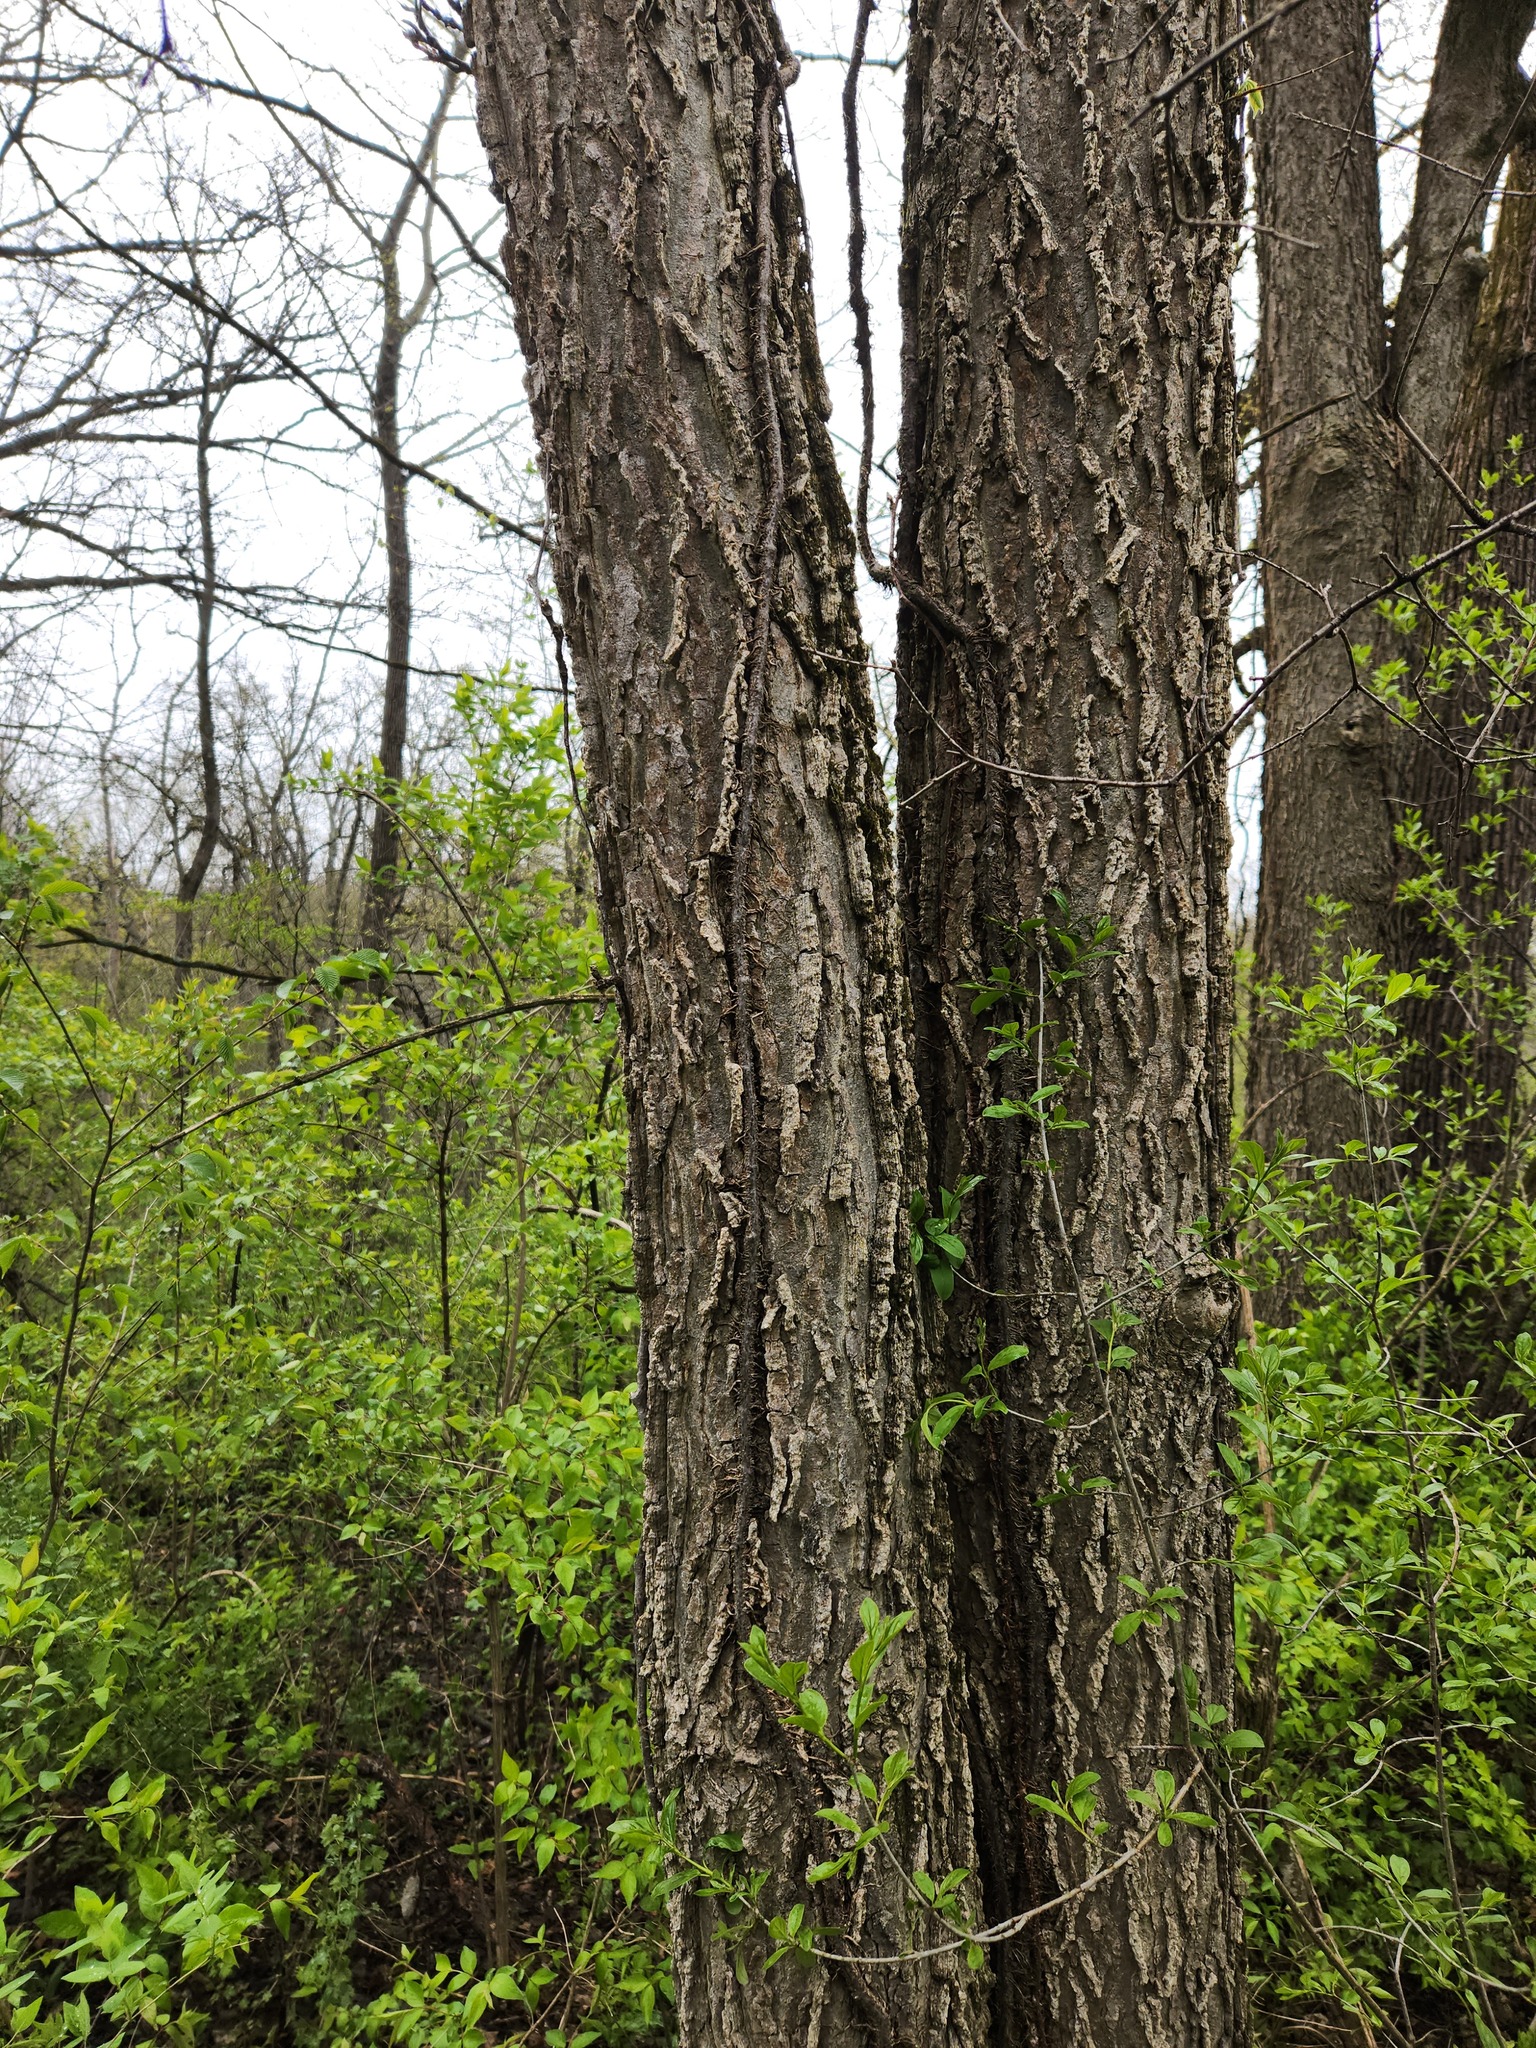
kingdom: Plantae
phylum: Tracheophyta
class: Magnoliopsida
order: Rosales
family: Cannabaceae
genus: Celtis
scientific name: Celtis occidentalis
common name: Common hackberry
